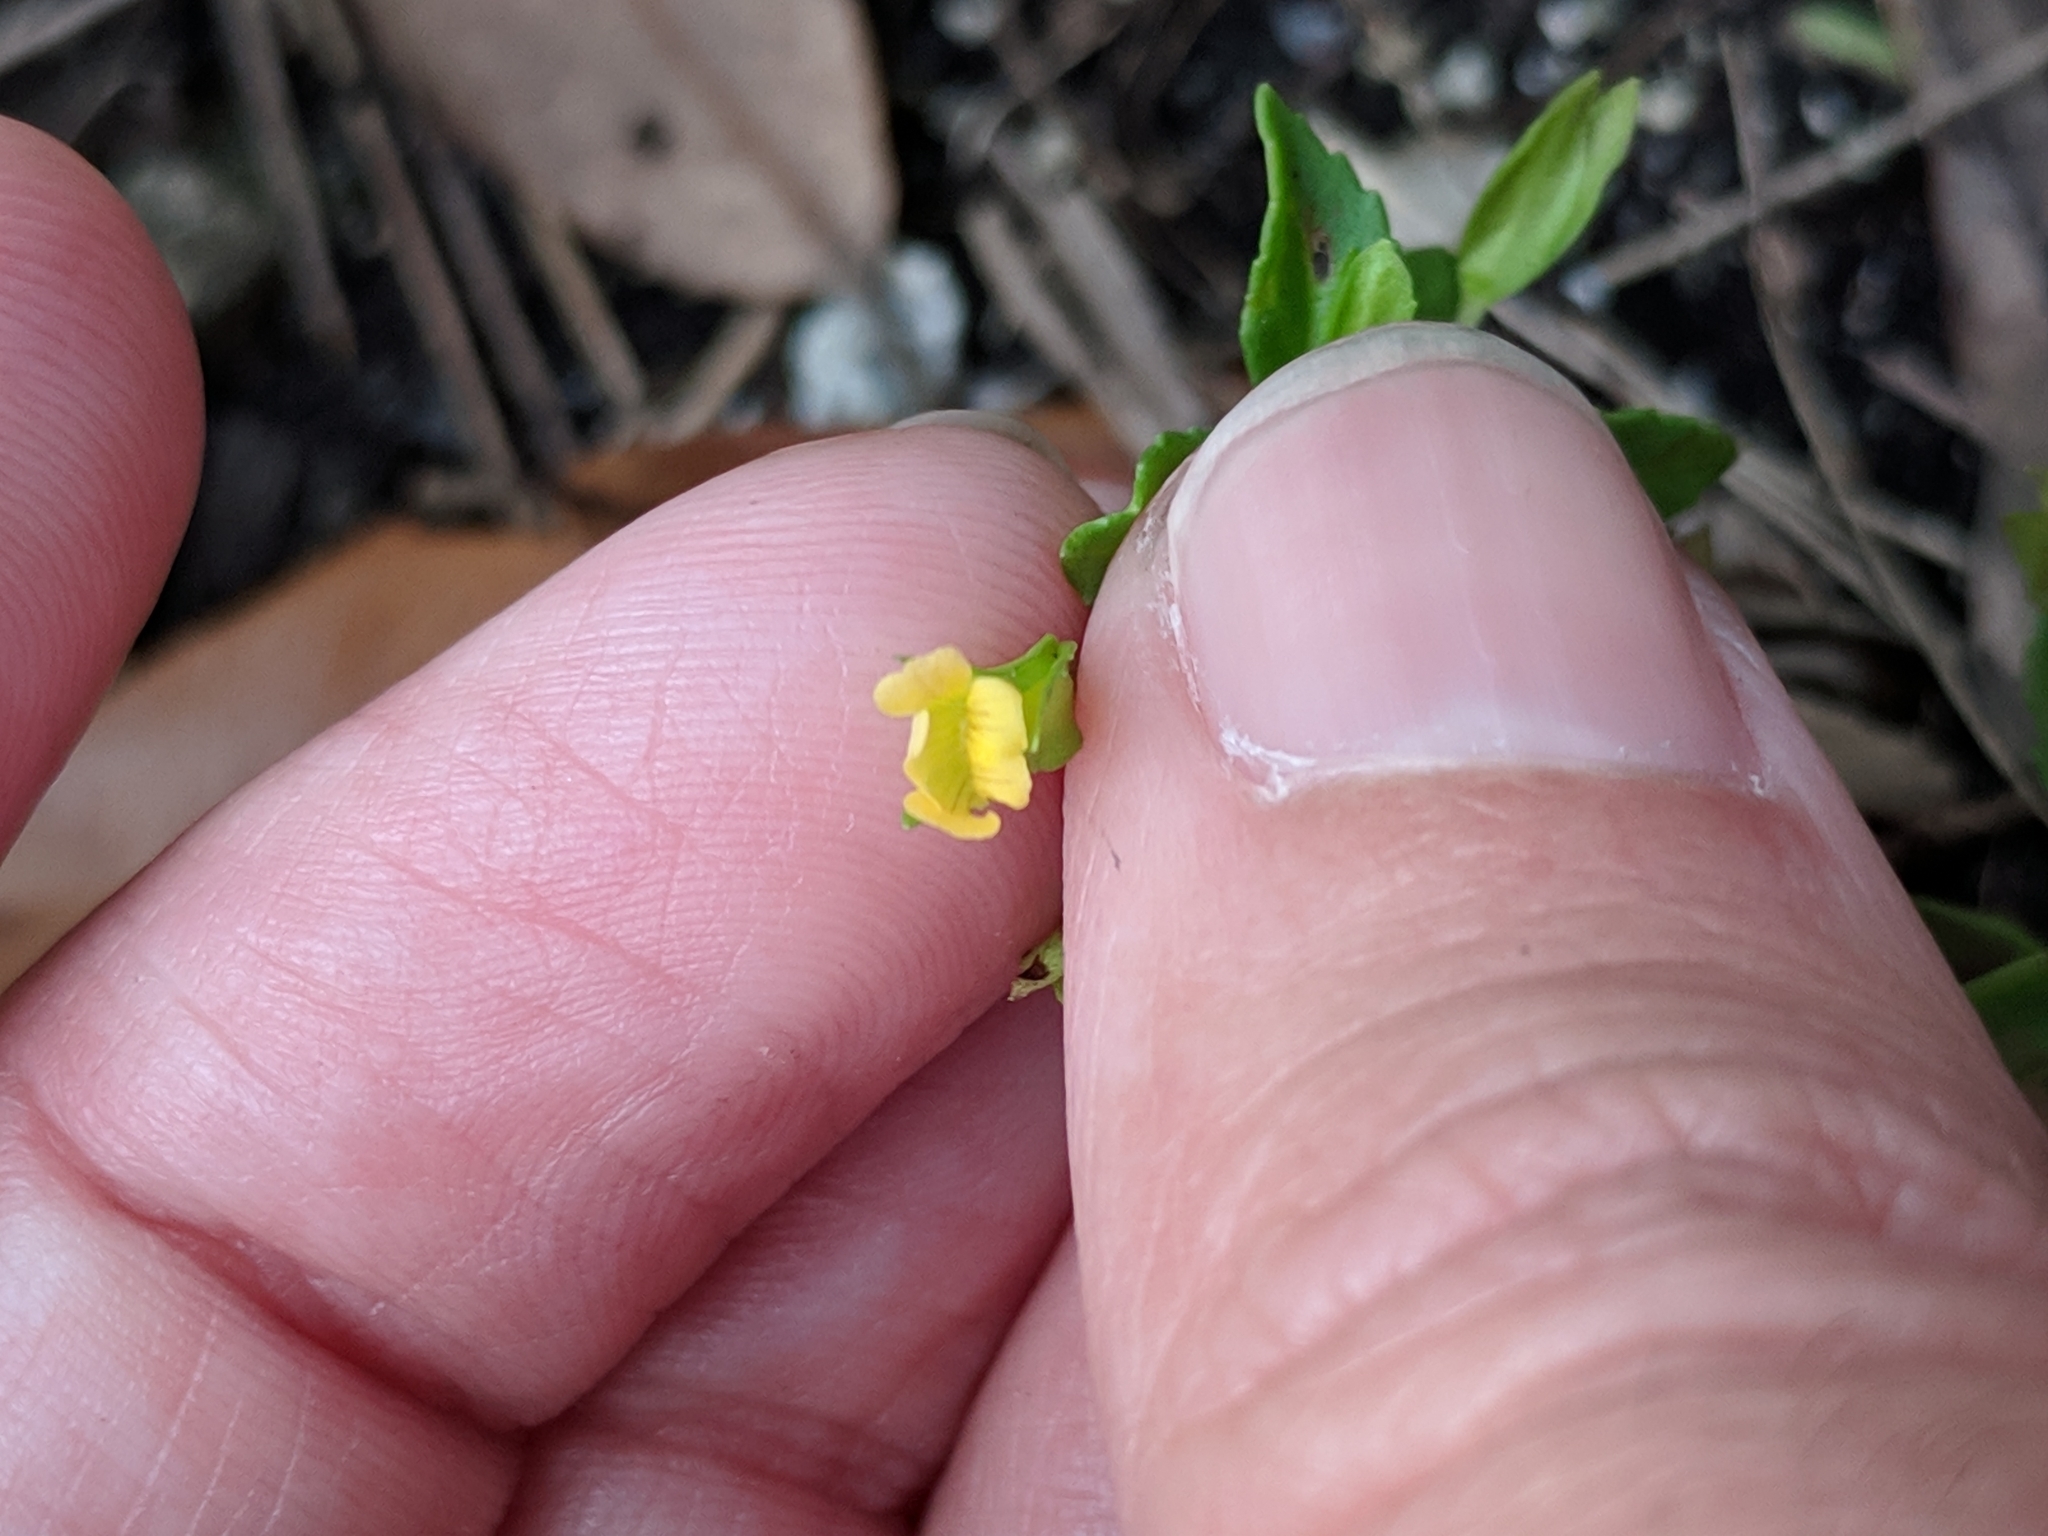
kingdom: Plantae
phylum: Tracheophyta
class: Magnoliopsida
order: Lamiales
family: Plantaginaceae
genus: Mecardonia
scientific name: Mecardonia procumbens
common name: Baby jump-up
